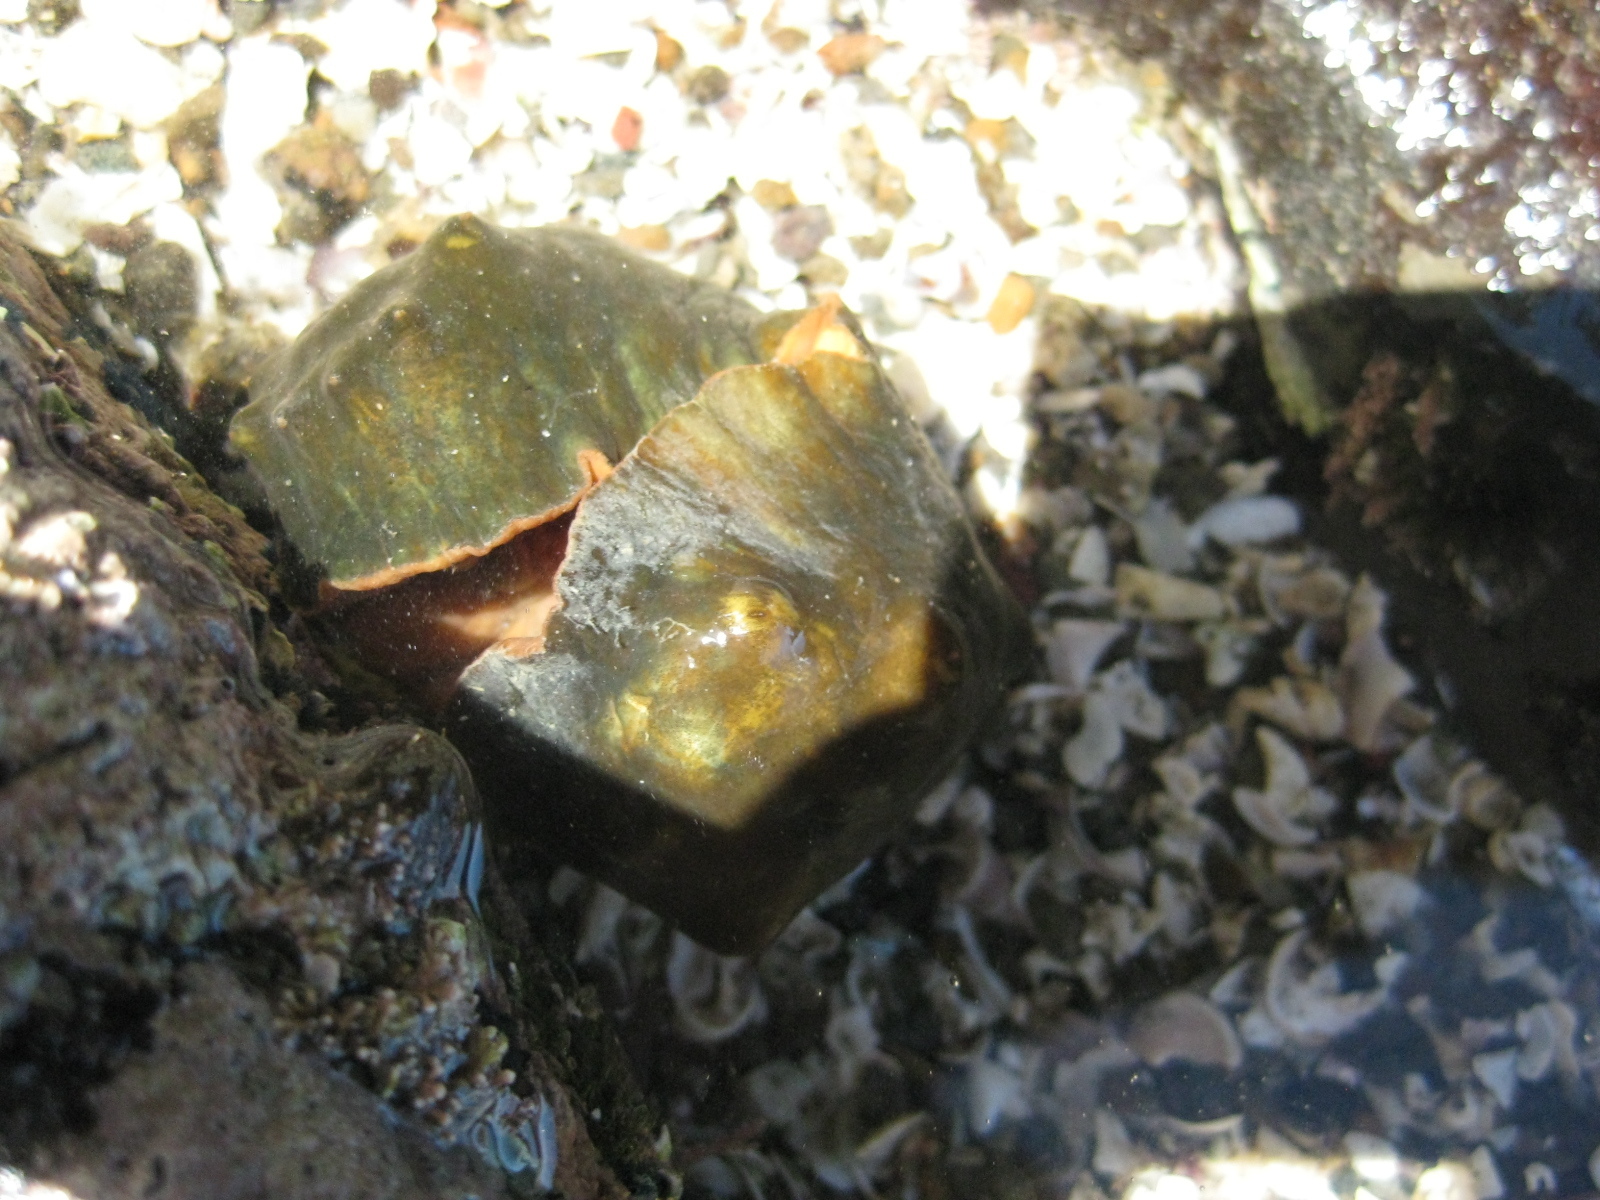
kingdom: Animalia
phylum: Mollusca
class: Polyplacophora
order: Chitonida
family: Acanthochitonidae
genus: Cryptoconchus
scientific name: Cryptoconchus porosus
